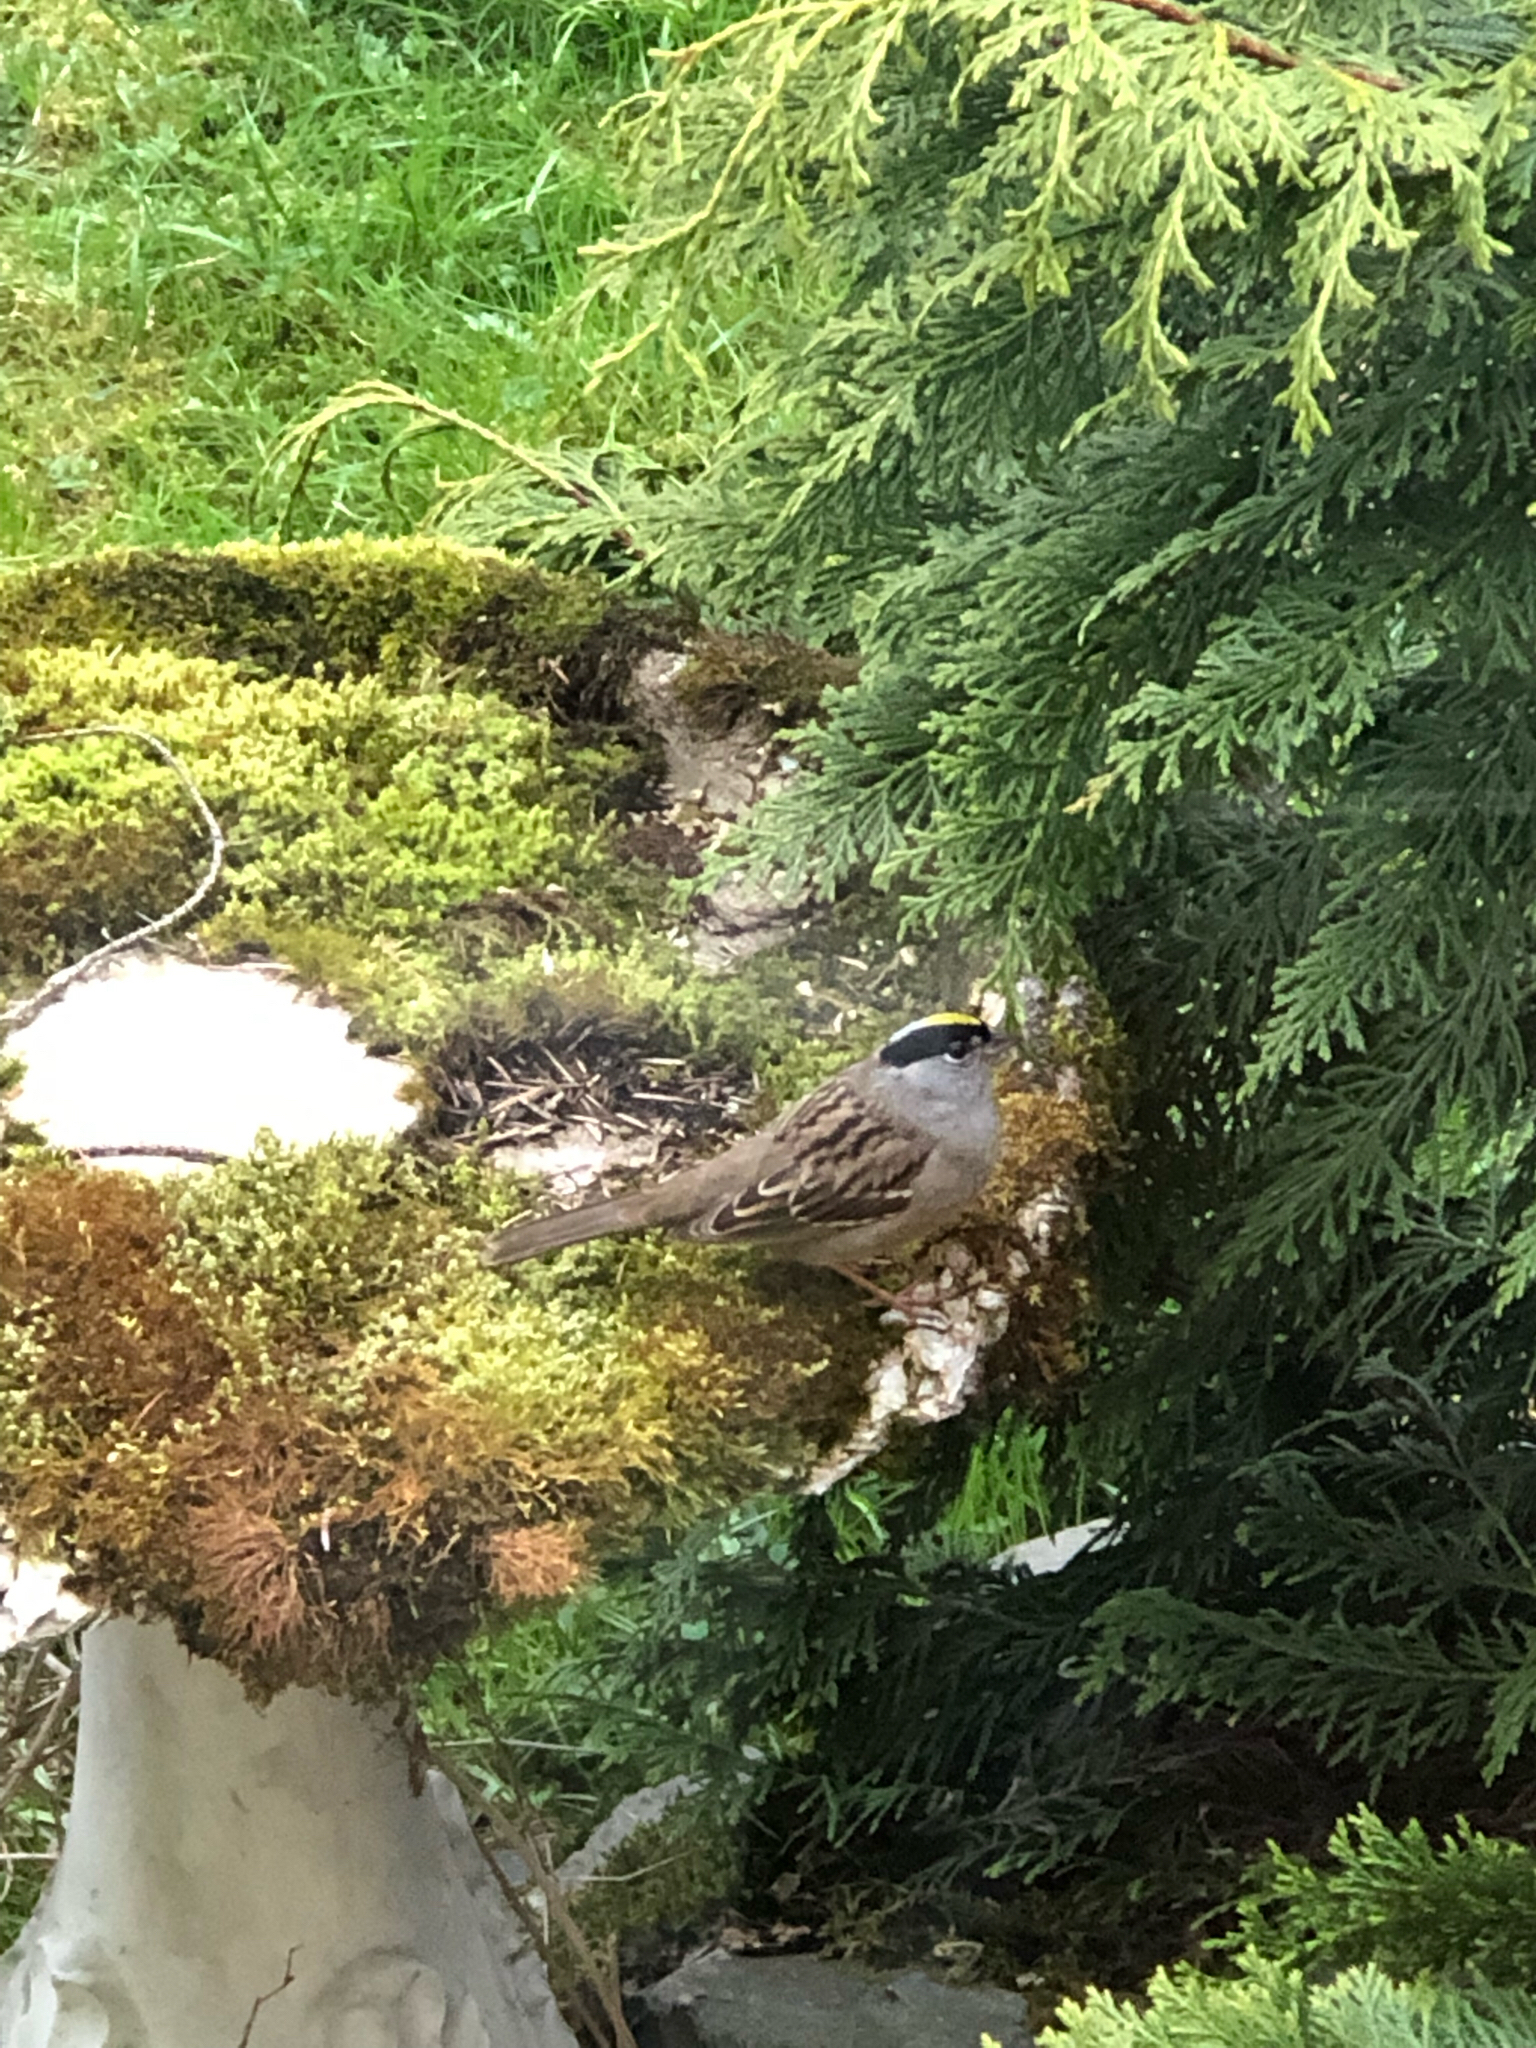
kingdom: Animalia
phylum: Chordata
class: Aves
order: Passeriformes
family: Passerellidae
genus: Zonotrichia
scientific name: Zonotrichia atricapilla
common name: Golden-crowned sparrow
